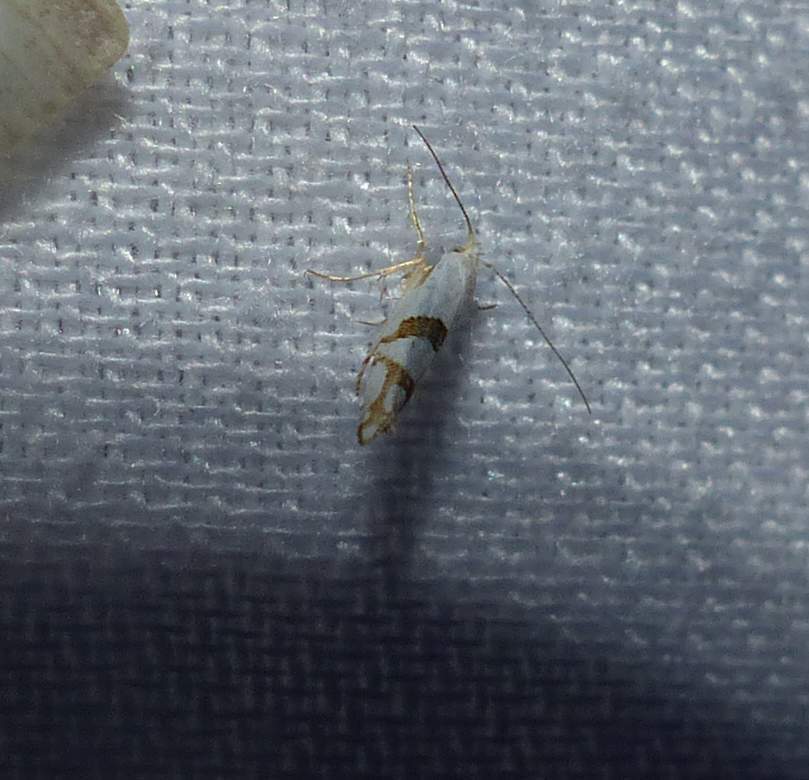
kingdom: Animalia
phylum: Arthropoda
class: Insecta
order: Lepidoptera
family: Argyresthiidae
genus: Argyresthia
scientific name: Argyresthia oreasella
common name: Cherry shoot borer moth
